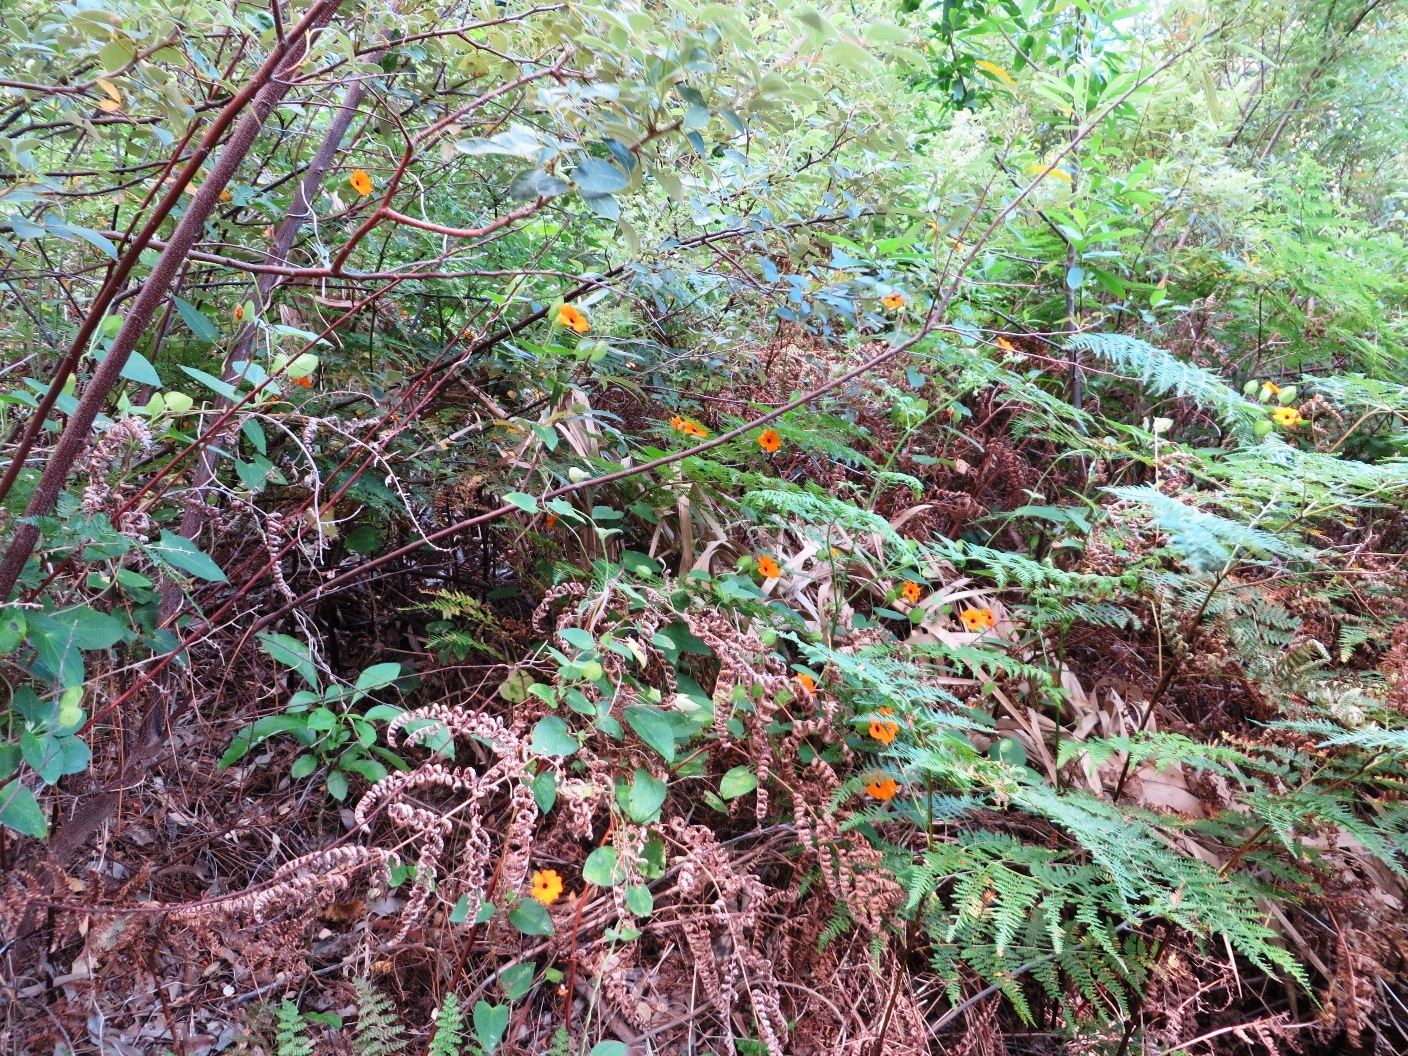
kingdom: Plantae
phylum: Tracheophyta
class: Magnoliopsida
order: Lamiales
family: Acanthaceae
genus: Thunbergia
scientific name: Thunbergia alata
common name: Blackeyed susan vine
